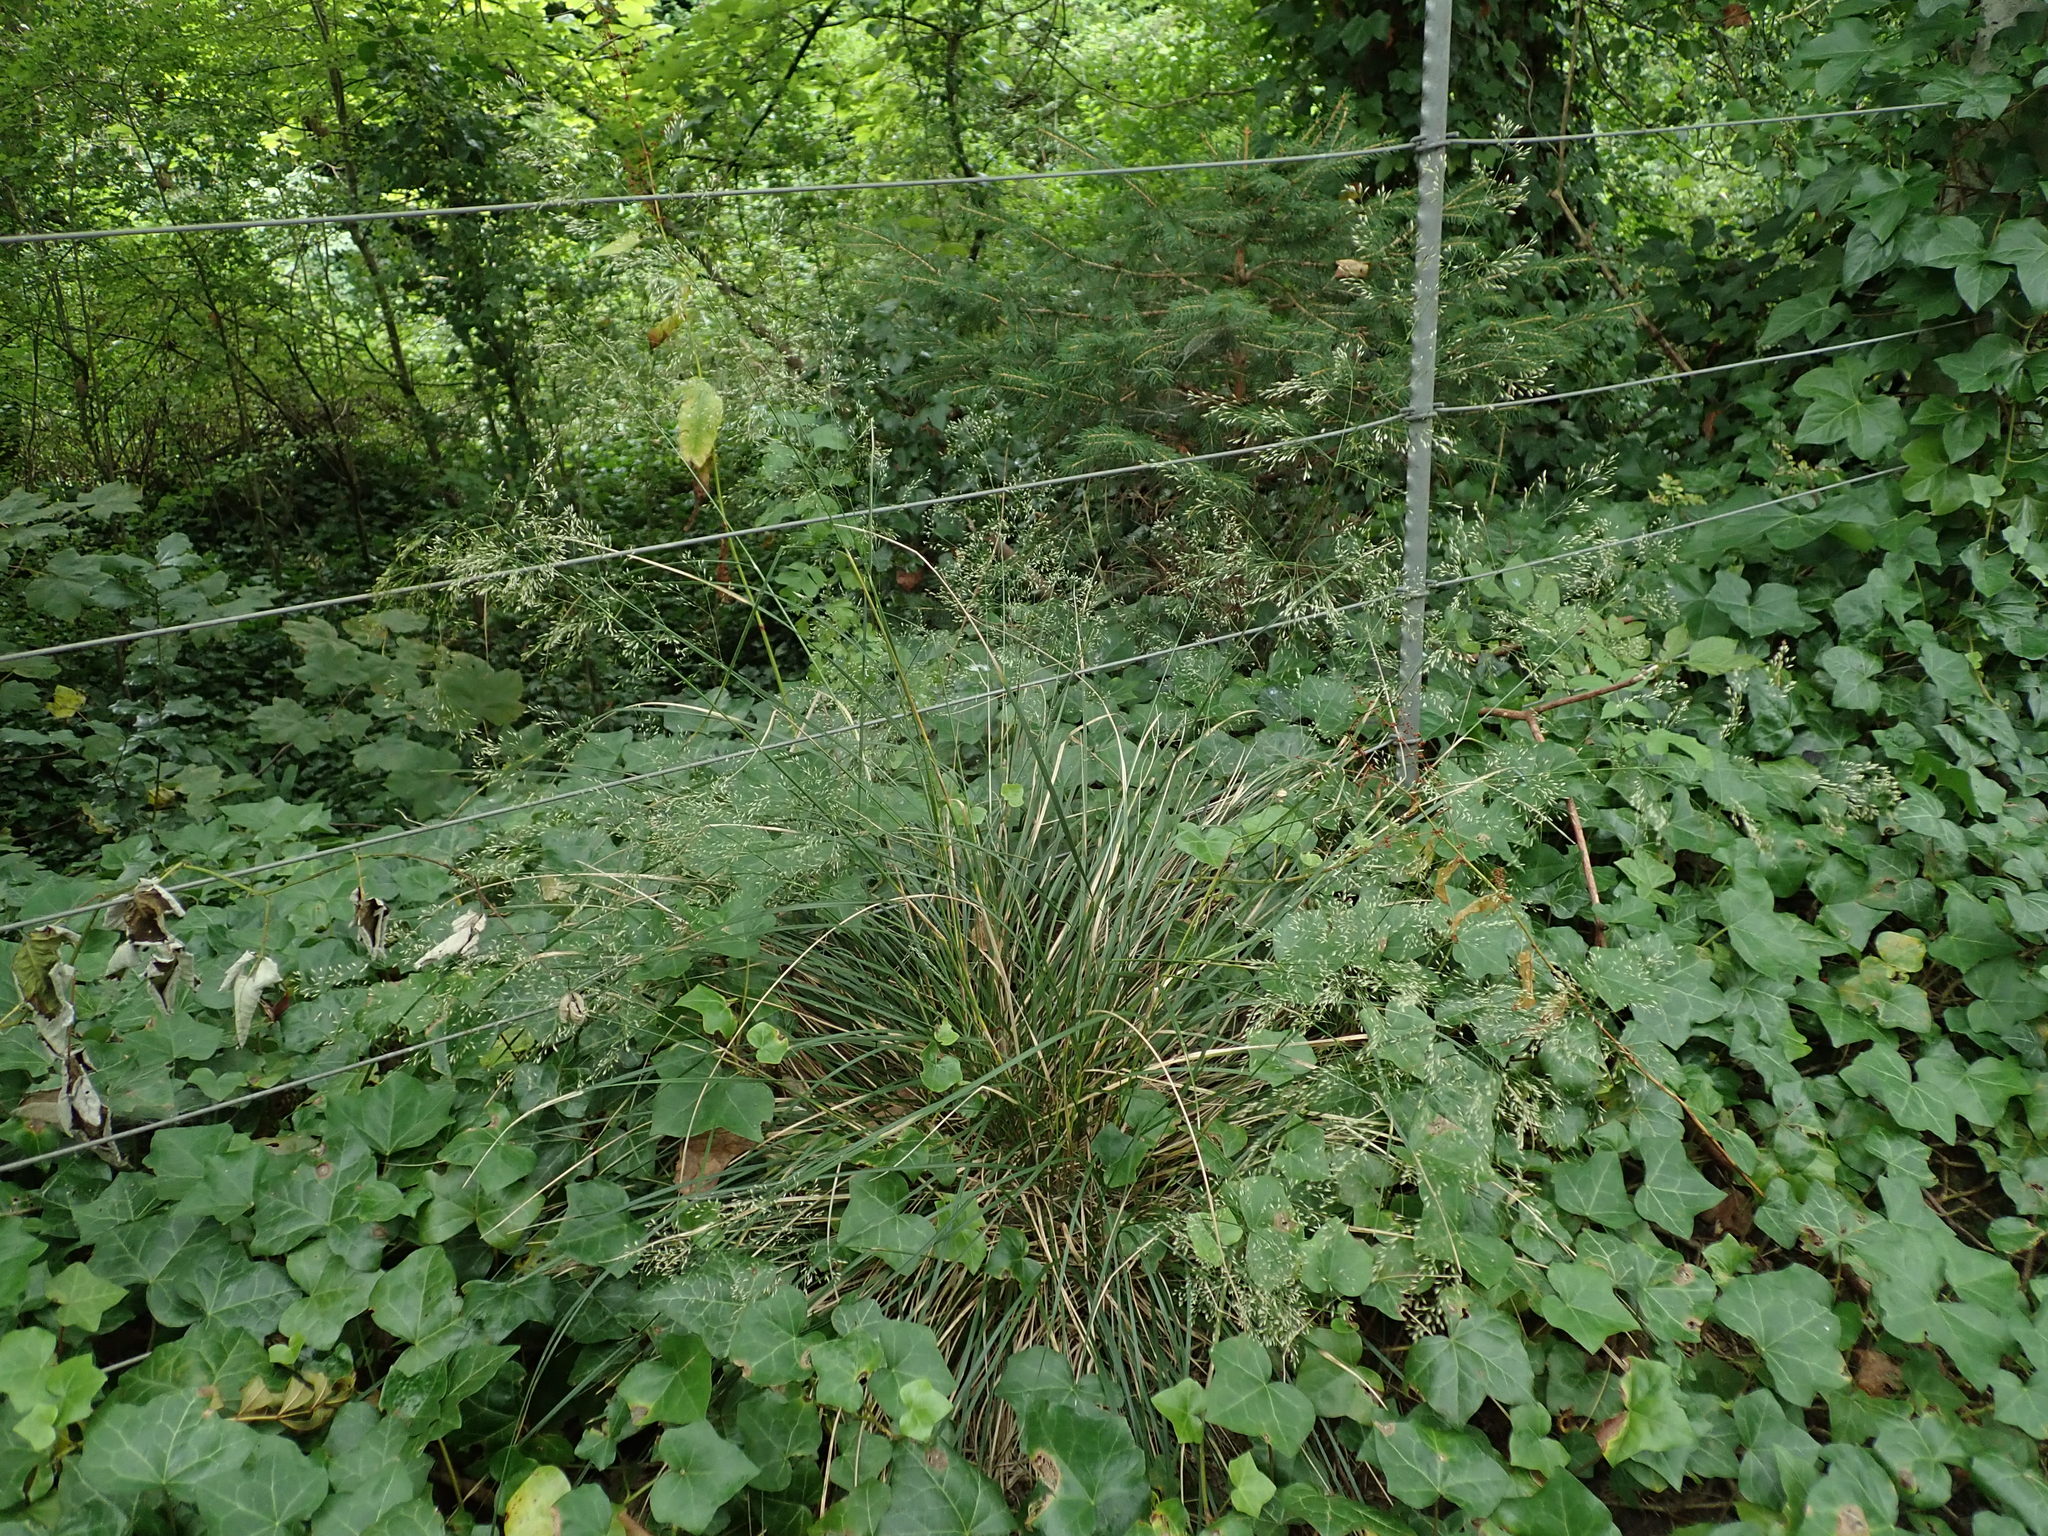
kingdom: Plantae
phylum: Tracheophyta
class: Liliopsida
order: Poales
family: Poaceae
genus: Deschampsia
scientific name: Deschampsia cespitosa
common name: Tufted hair-grass
